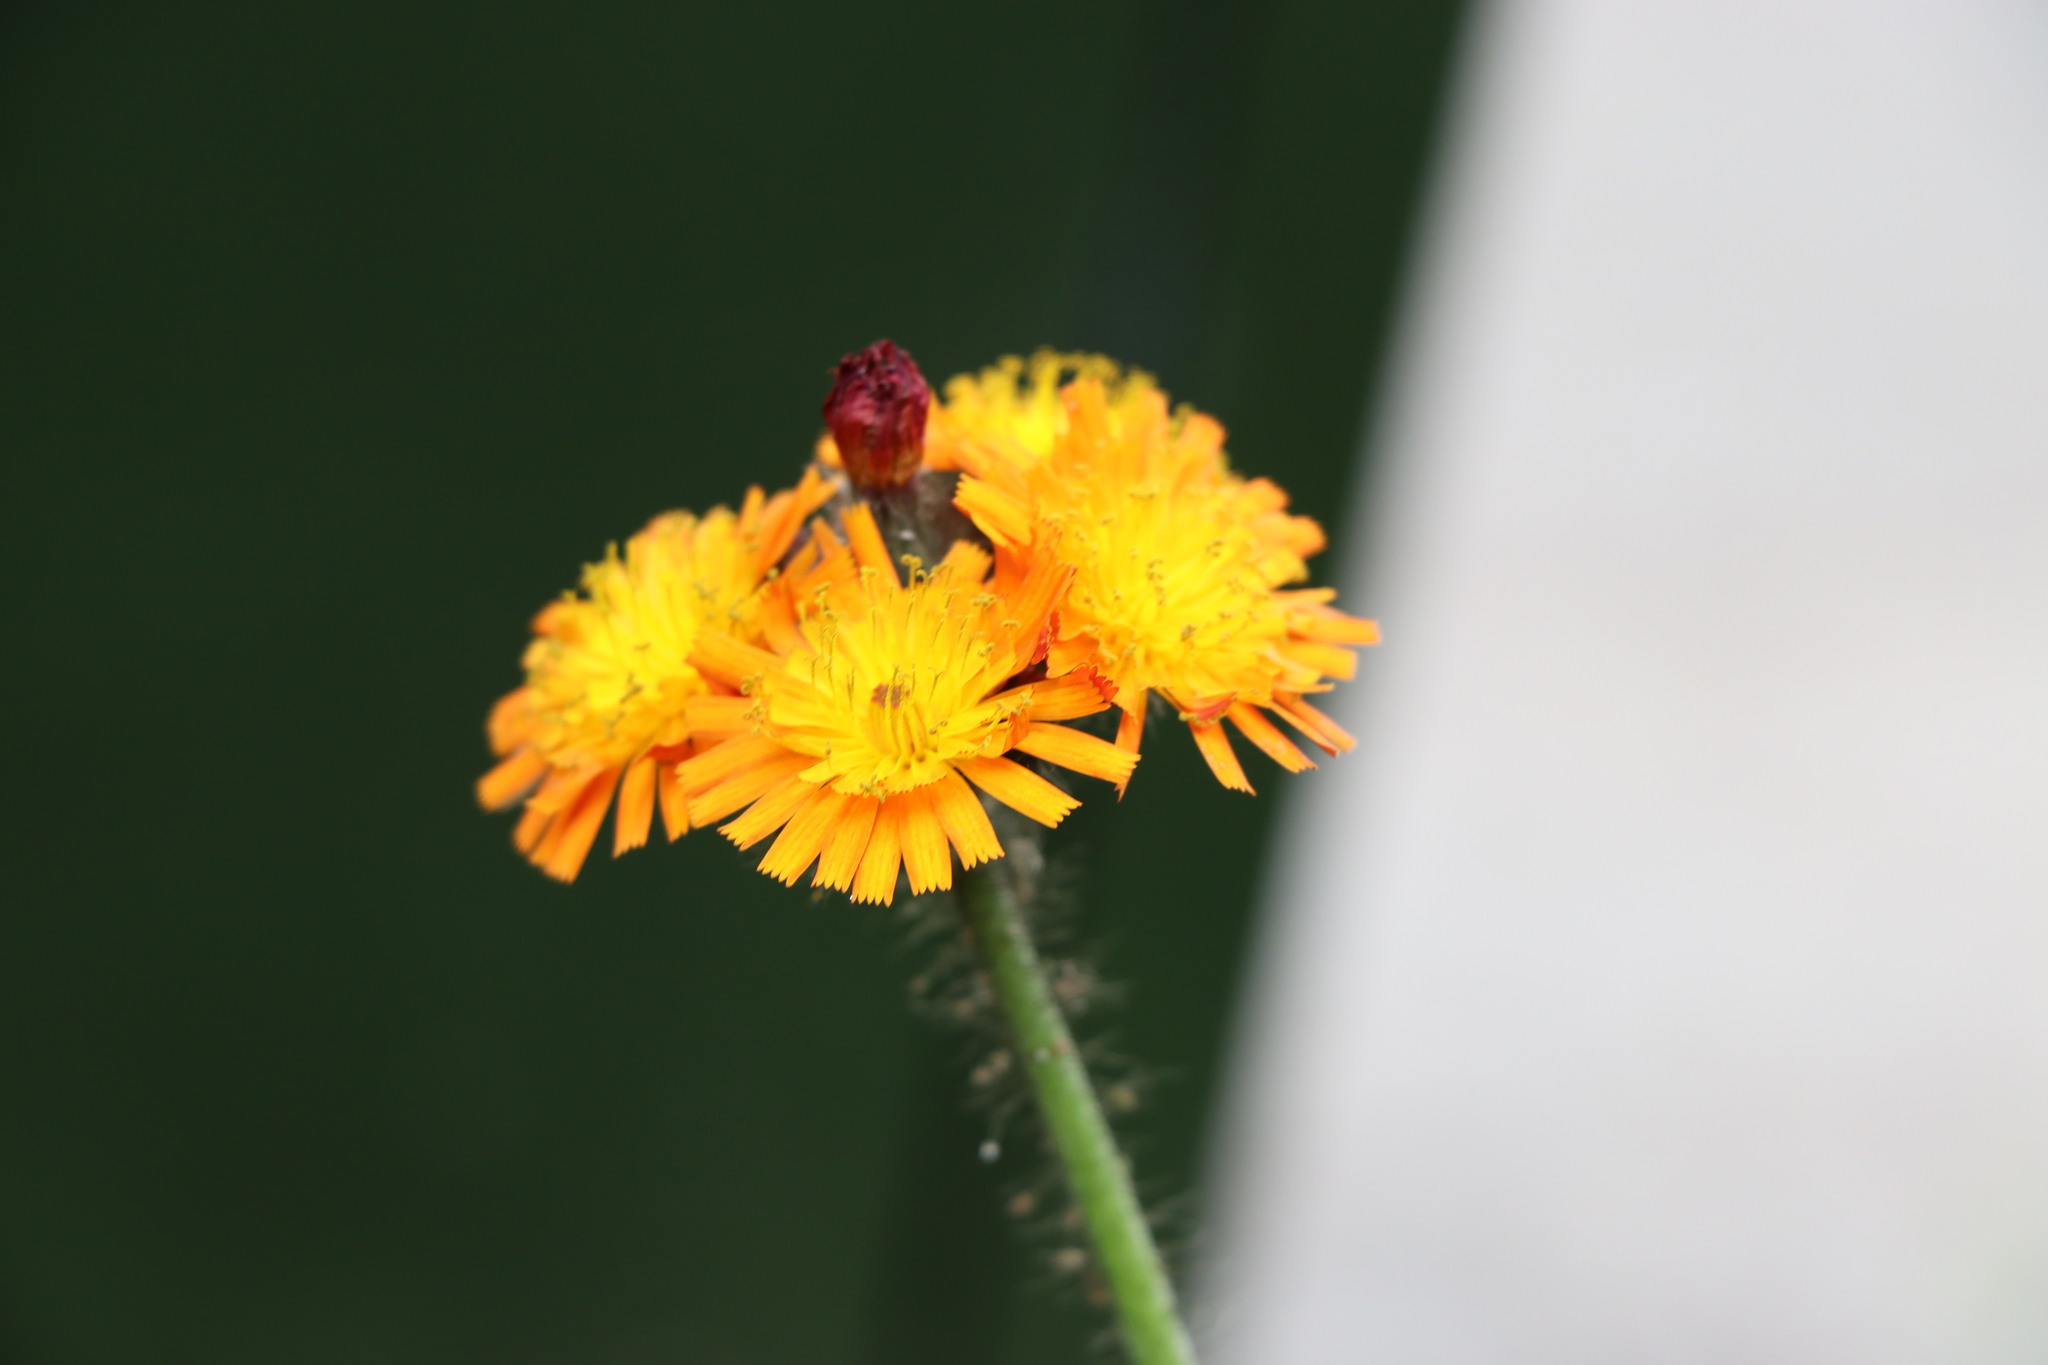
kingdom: Plantae
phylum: Tracheophyta
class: Magnoliopsida
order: Asterales
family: Asteraceae
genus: Pilosella
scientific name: Pilosella aurantiaca
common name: Fox-and-cubs
